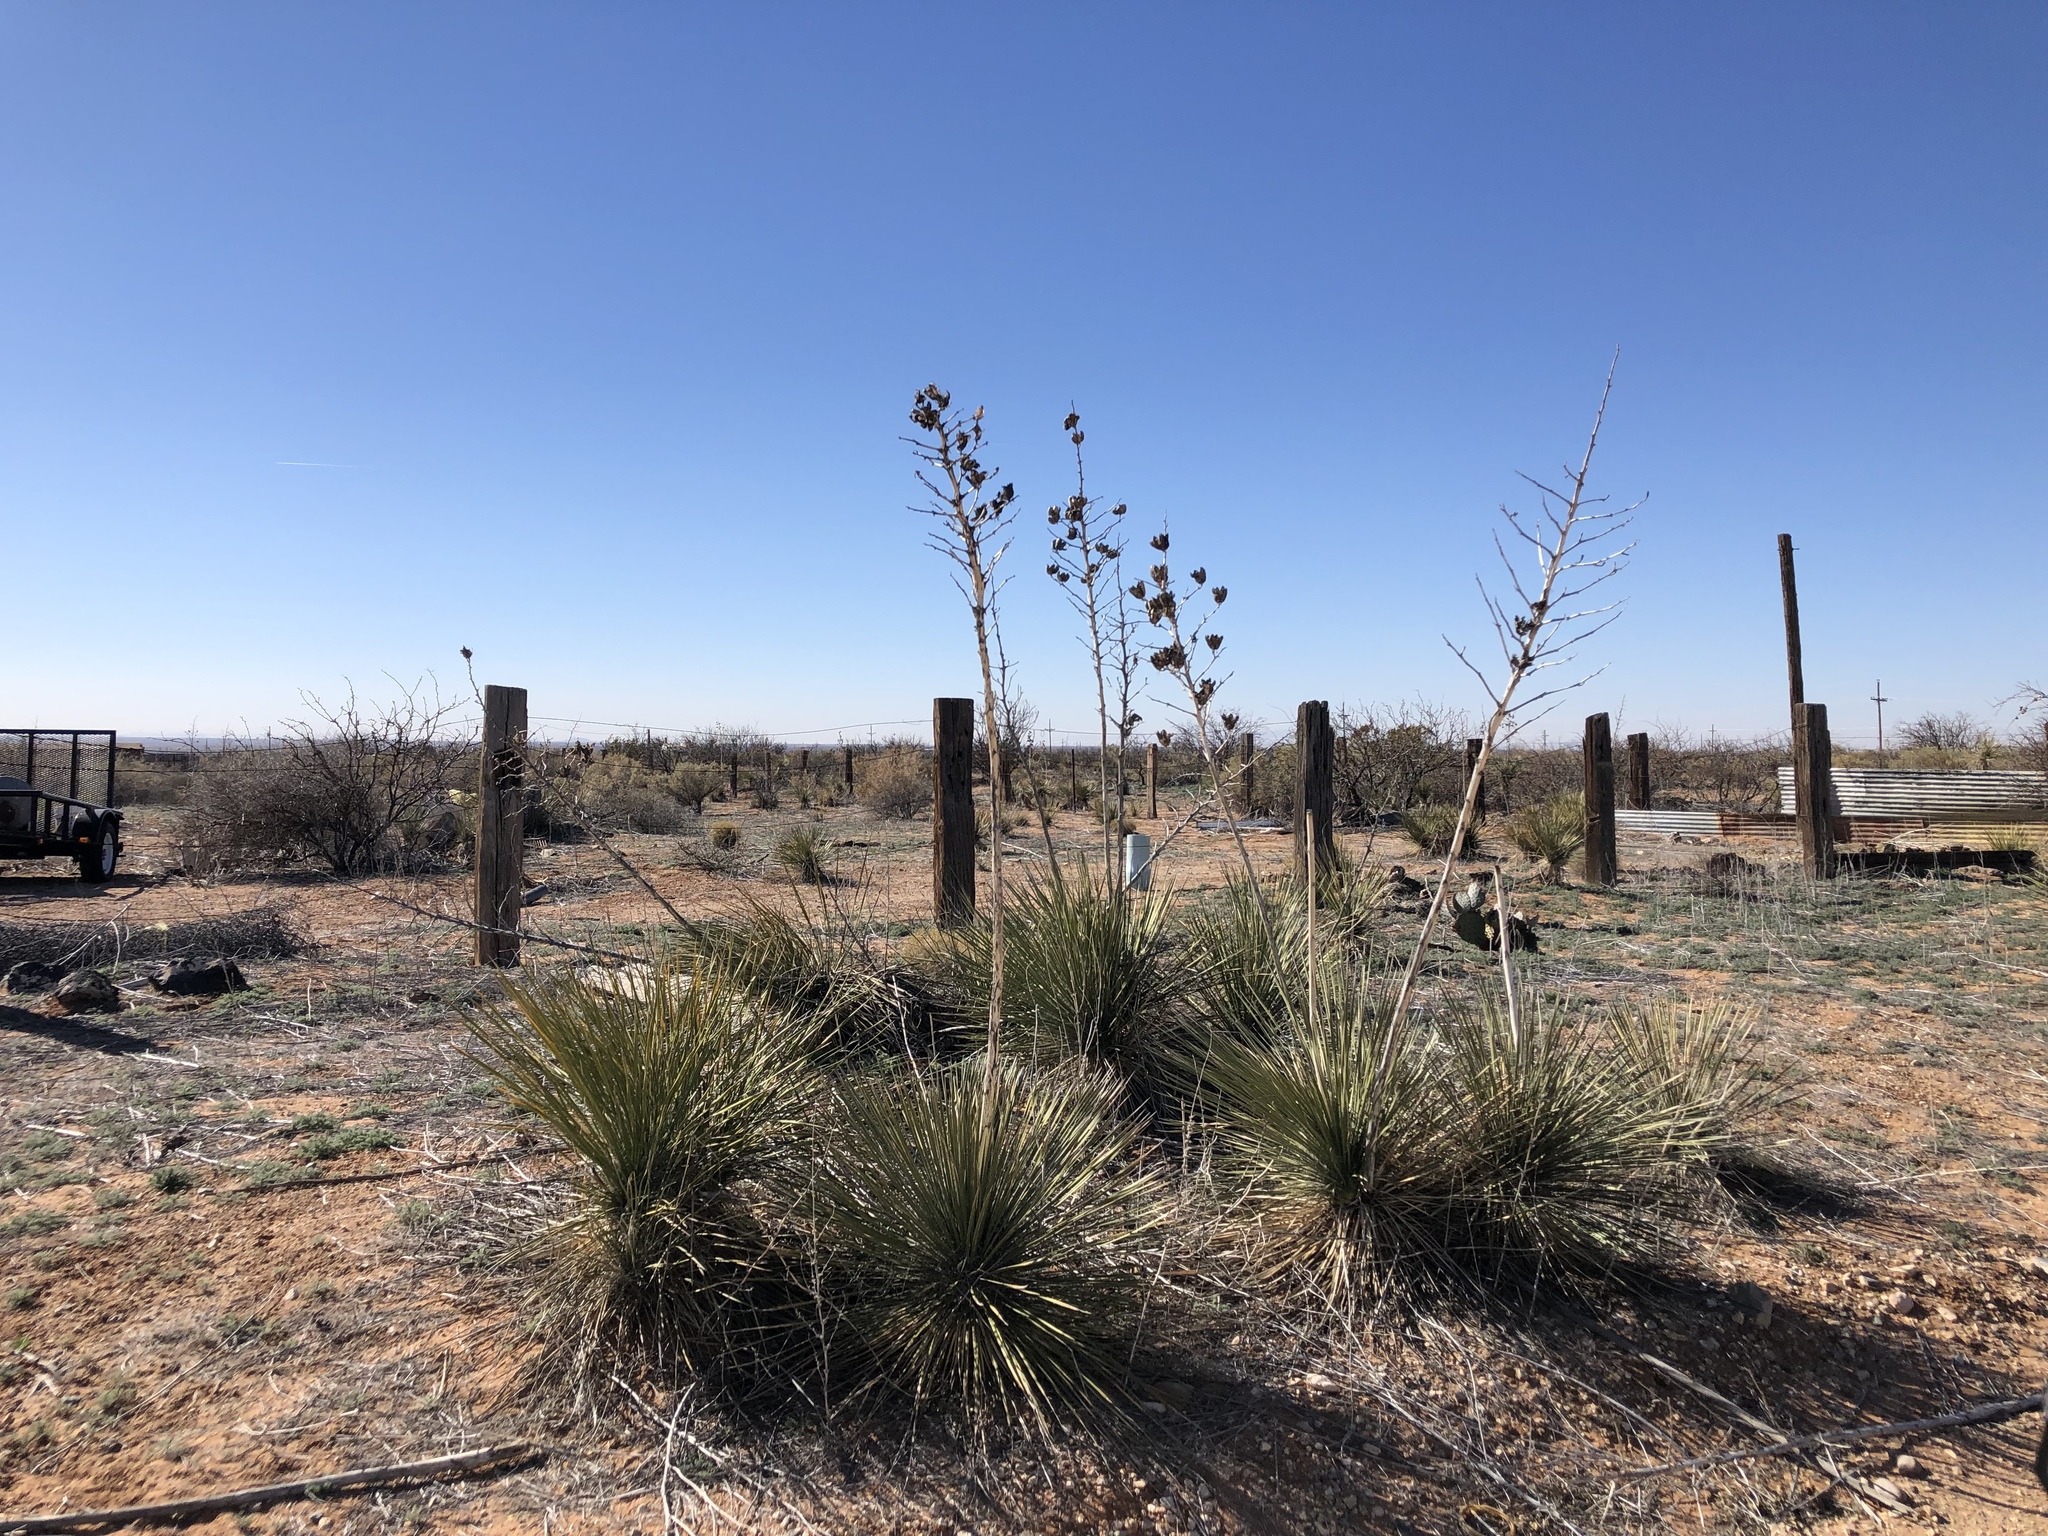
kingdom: Plantae
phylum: Tracheophyta
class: Liliopsida
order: Asparagales
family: Asparagaceae
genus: Yucca
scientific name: Yucca elata
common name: Palmella
